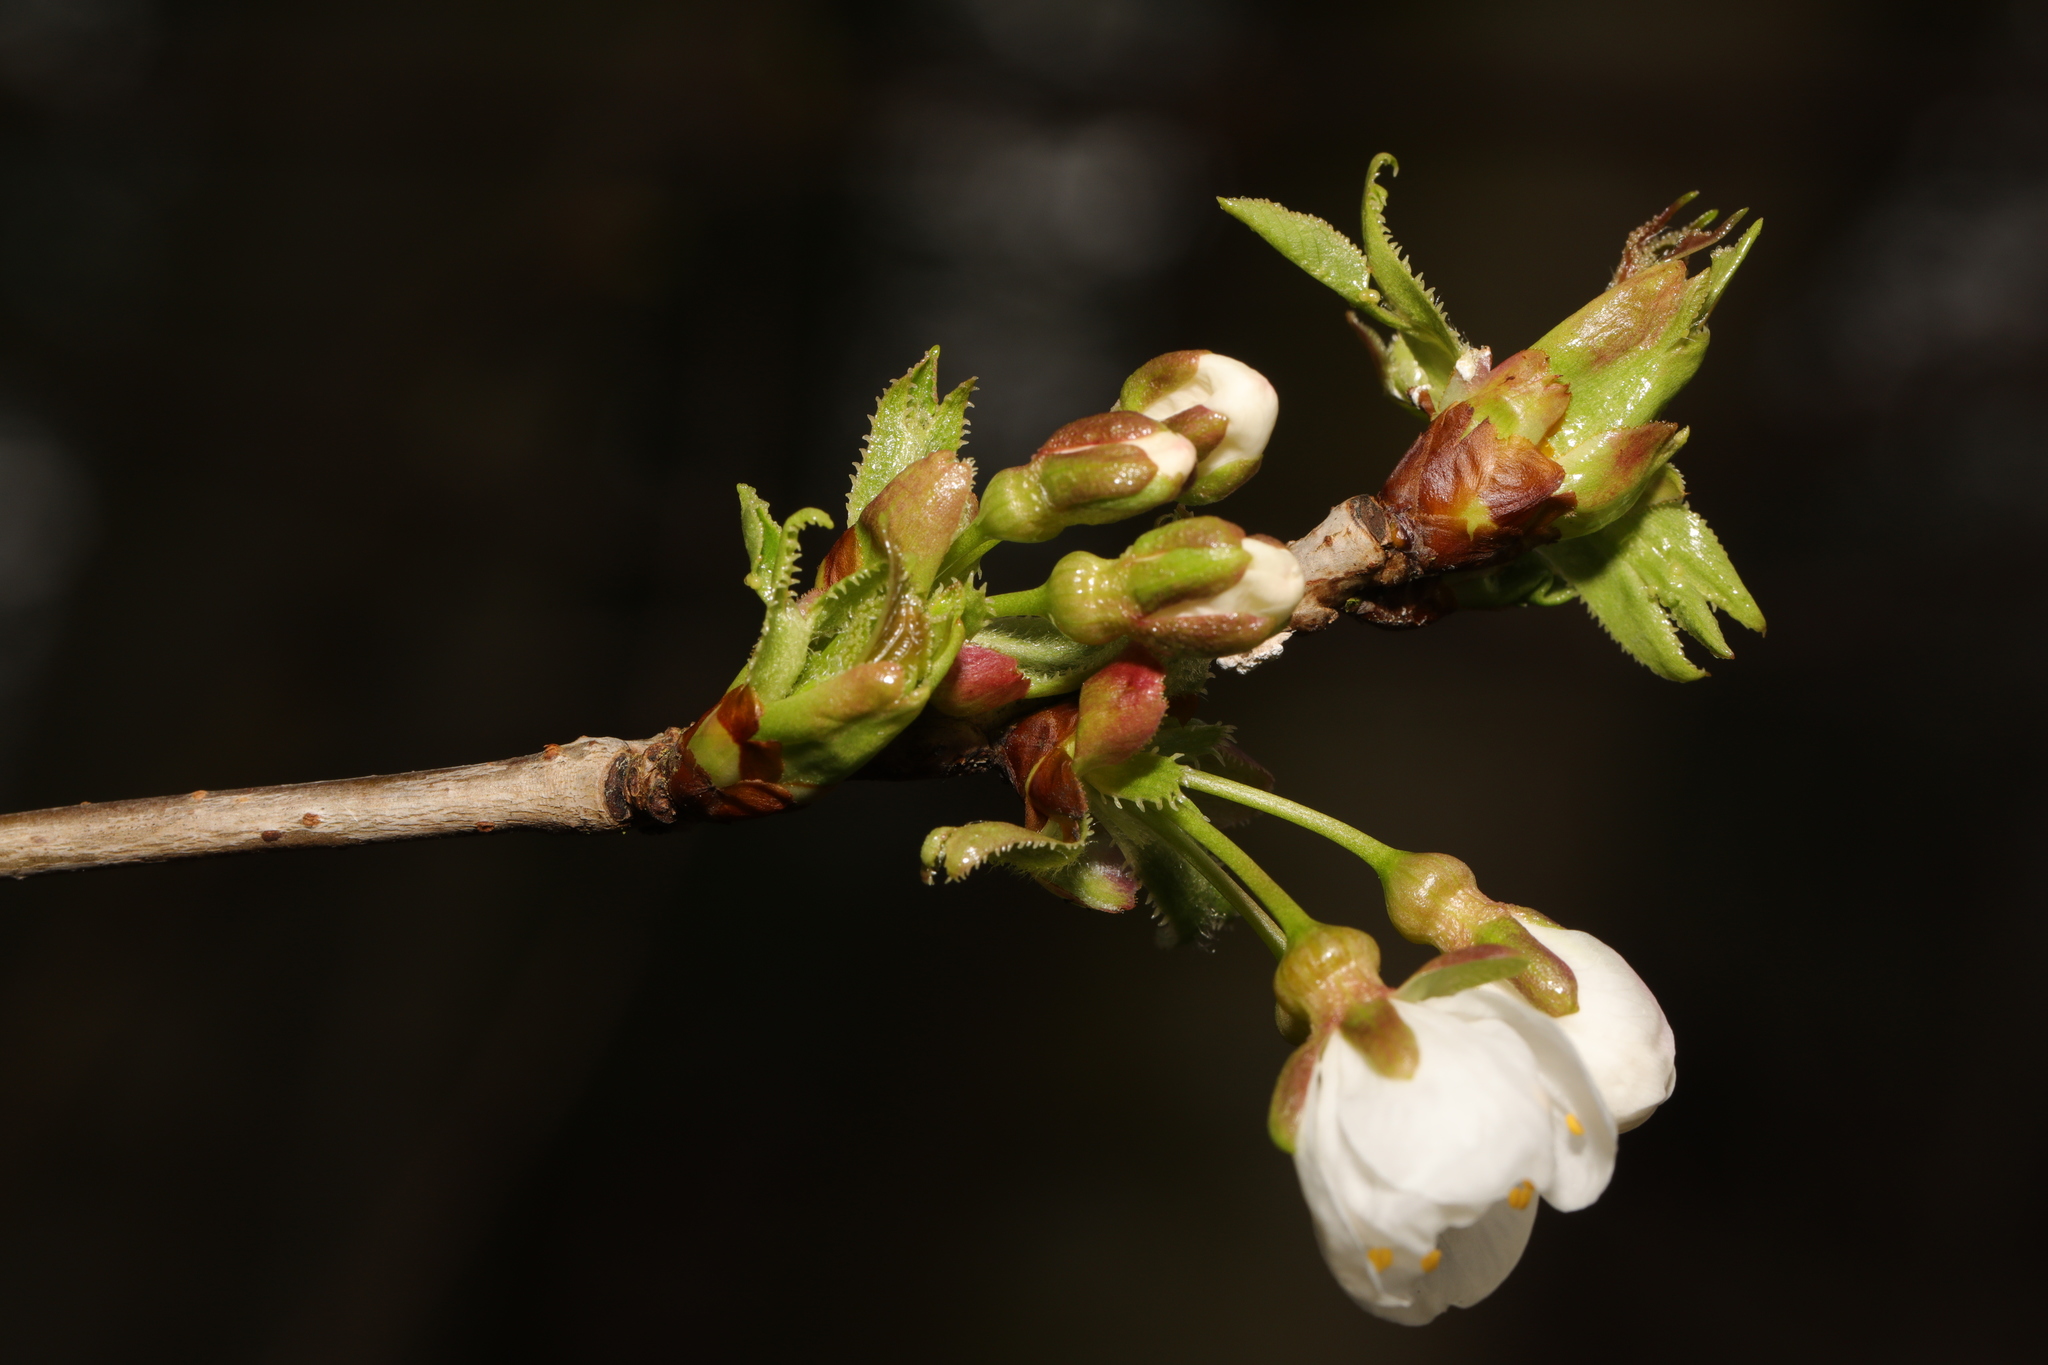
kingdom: Plantae
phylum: Tracheophyta
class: Magnoliopsida
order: Rosales
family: Rosaceae
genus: Prunus
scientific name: Prunus avium
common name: Sweet cherry
